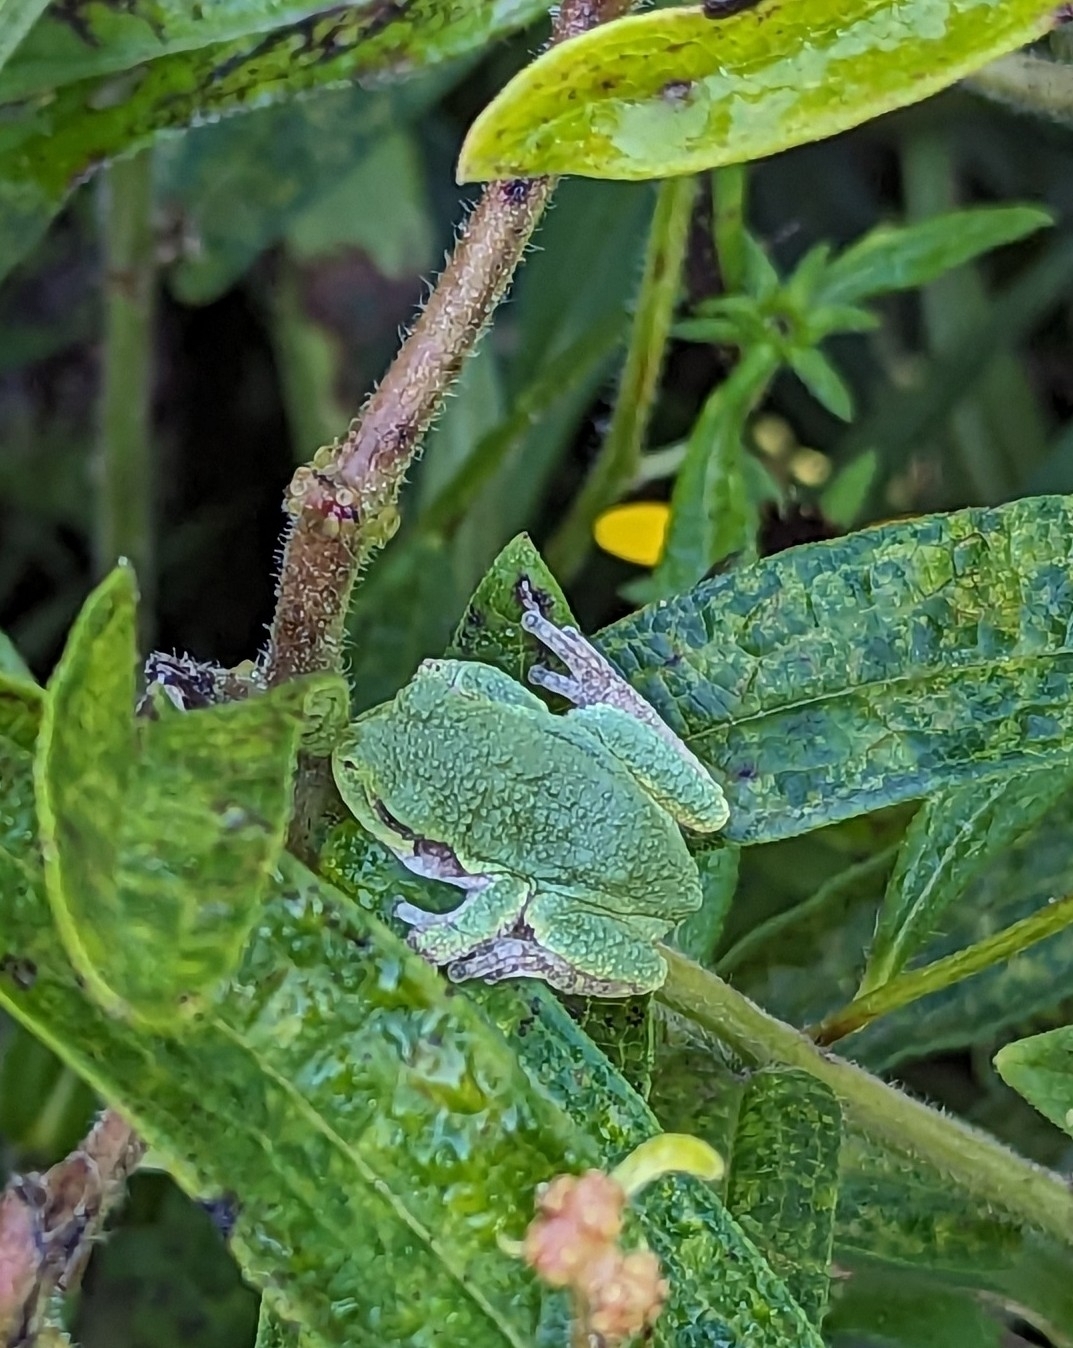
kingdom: Animalia
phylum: Chordata
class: Amphibia
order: Anura
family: Hylidae
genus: Hyla
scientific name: Hyla
